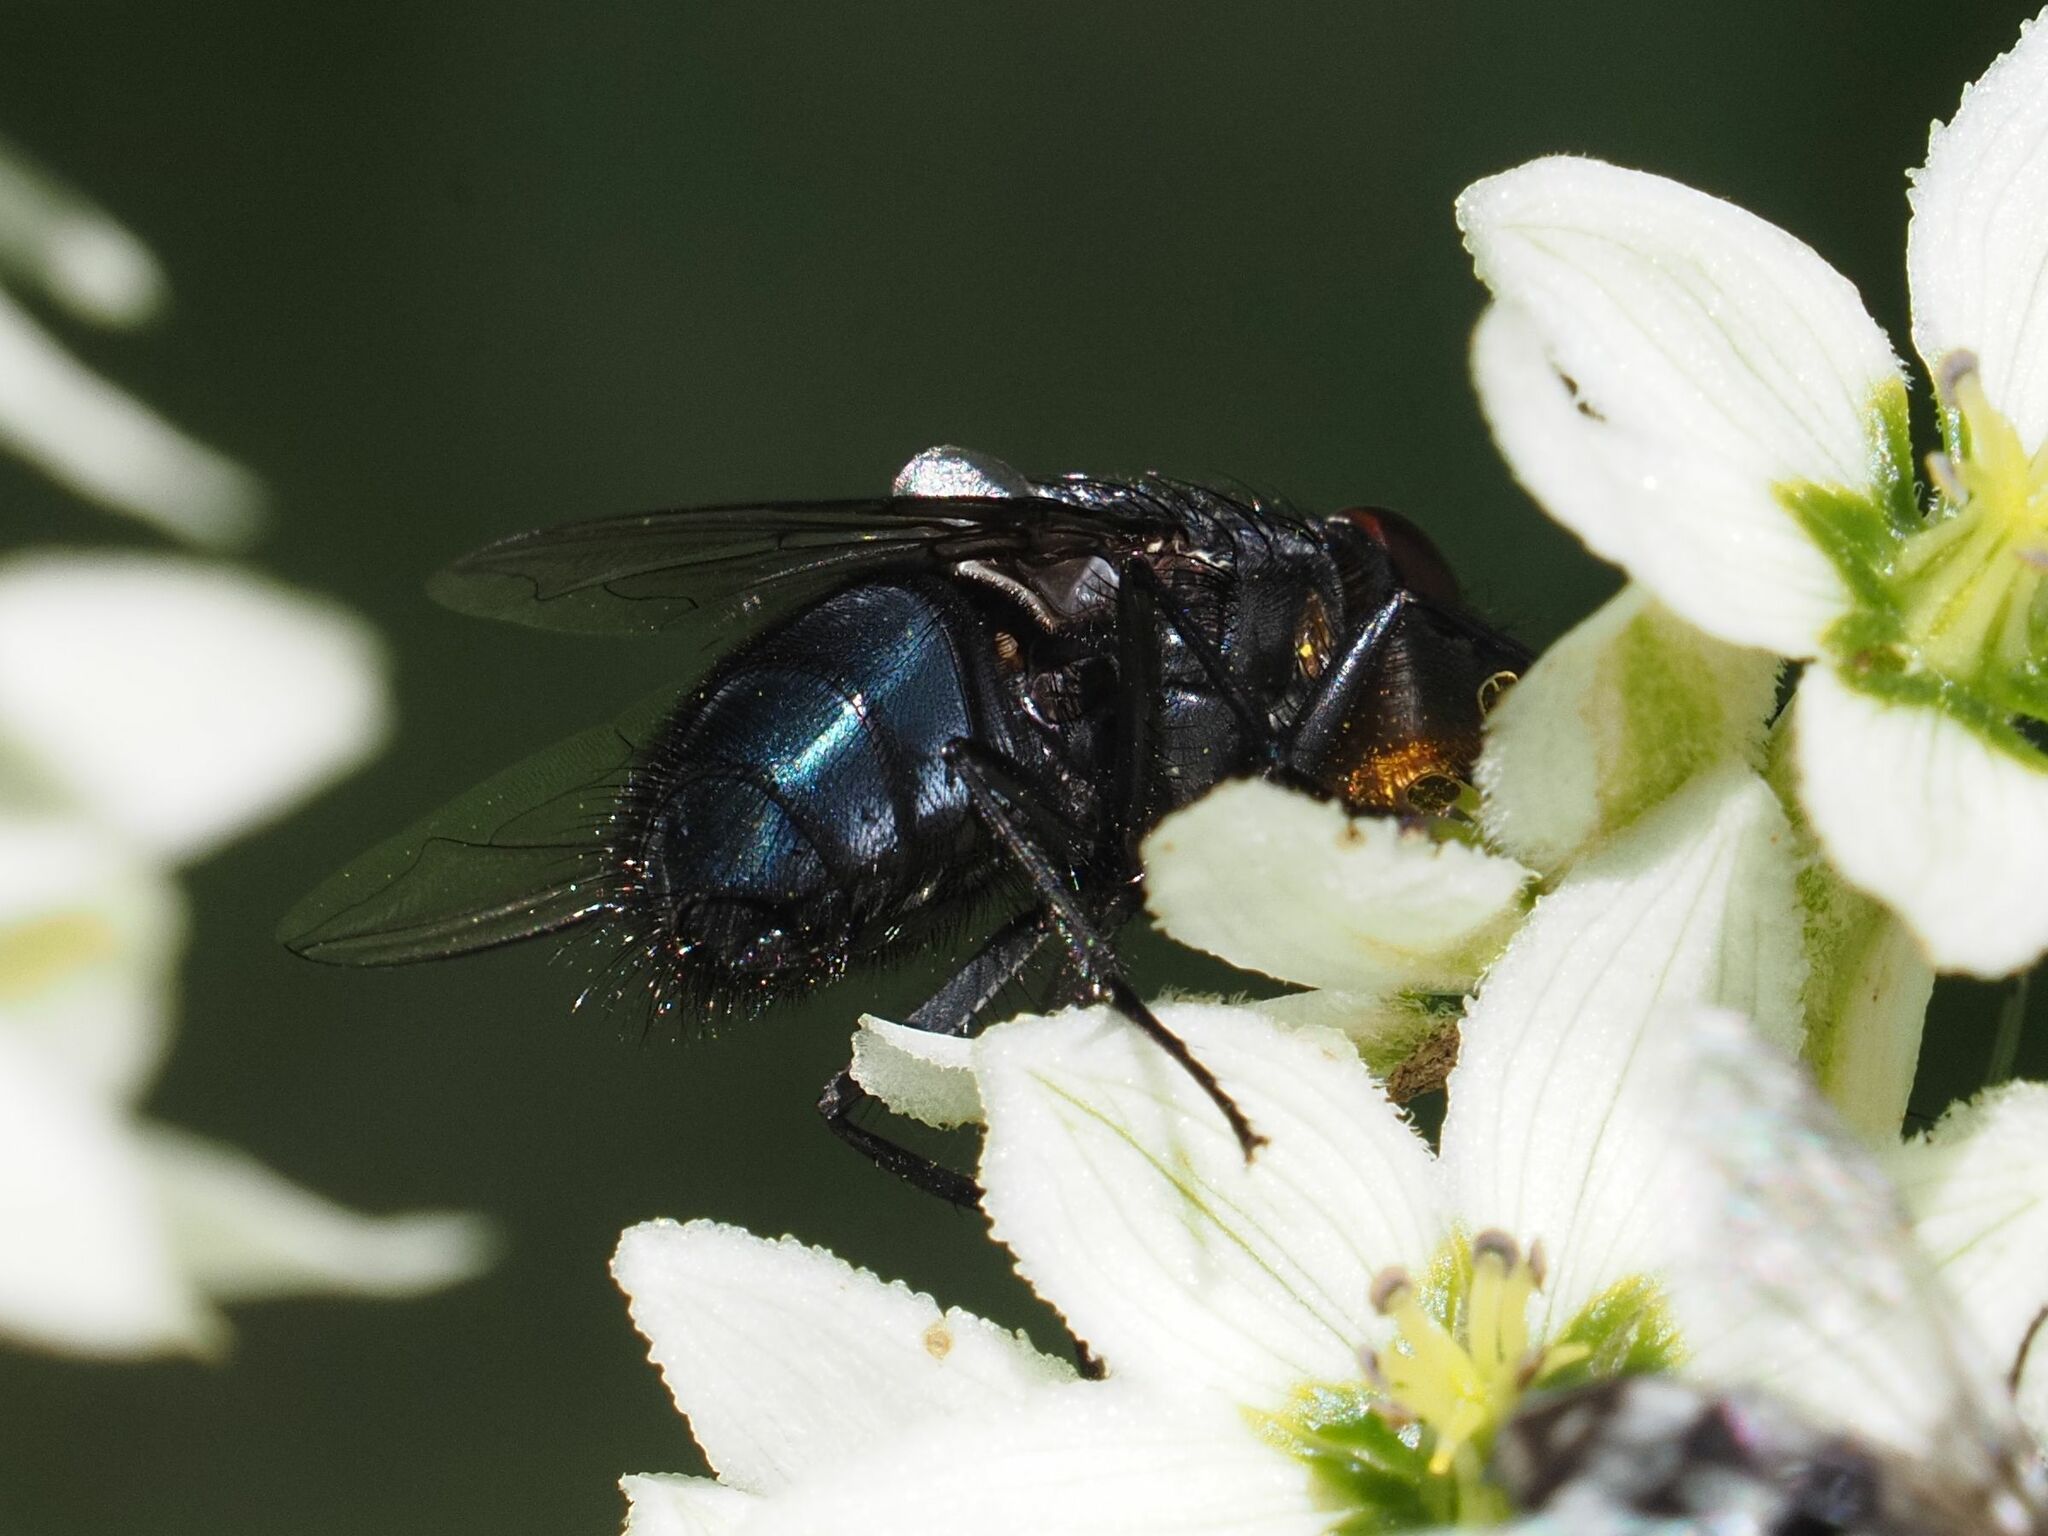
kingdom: Animalia
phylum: Arthropoda
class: Insecta
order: Diptera
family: Calliphoridae
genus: Calliphora
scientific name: Calliphora vomitoria
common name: Blue bottle fly
